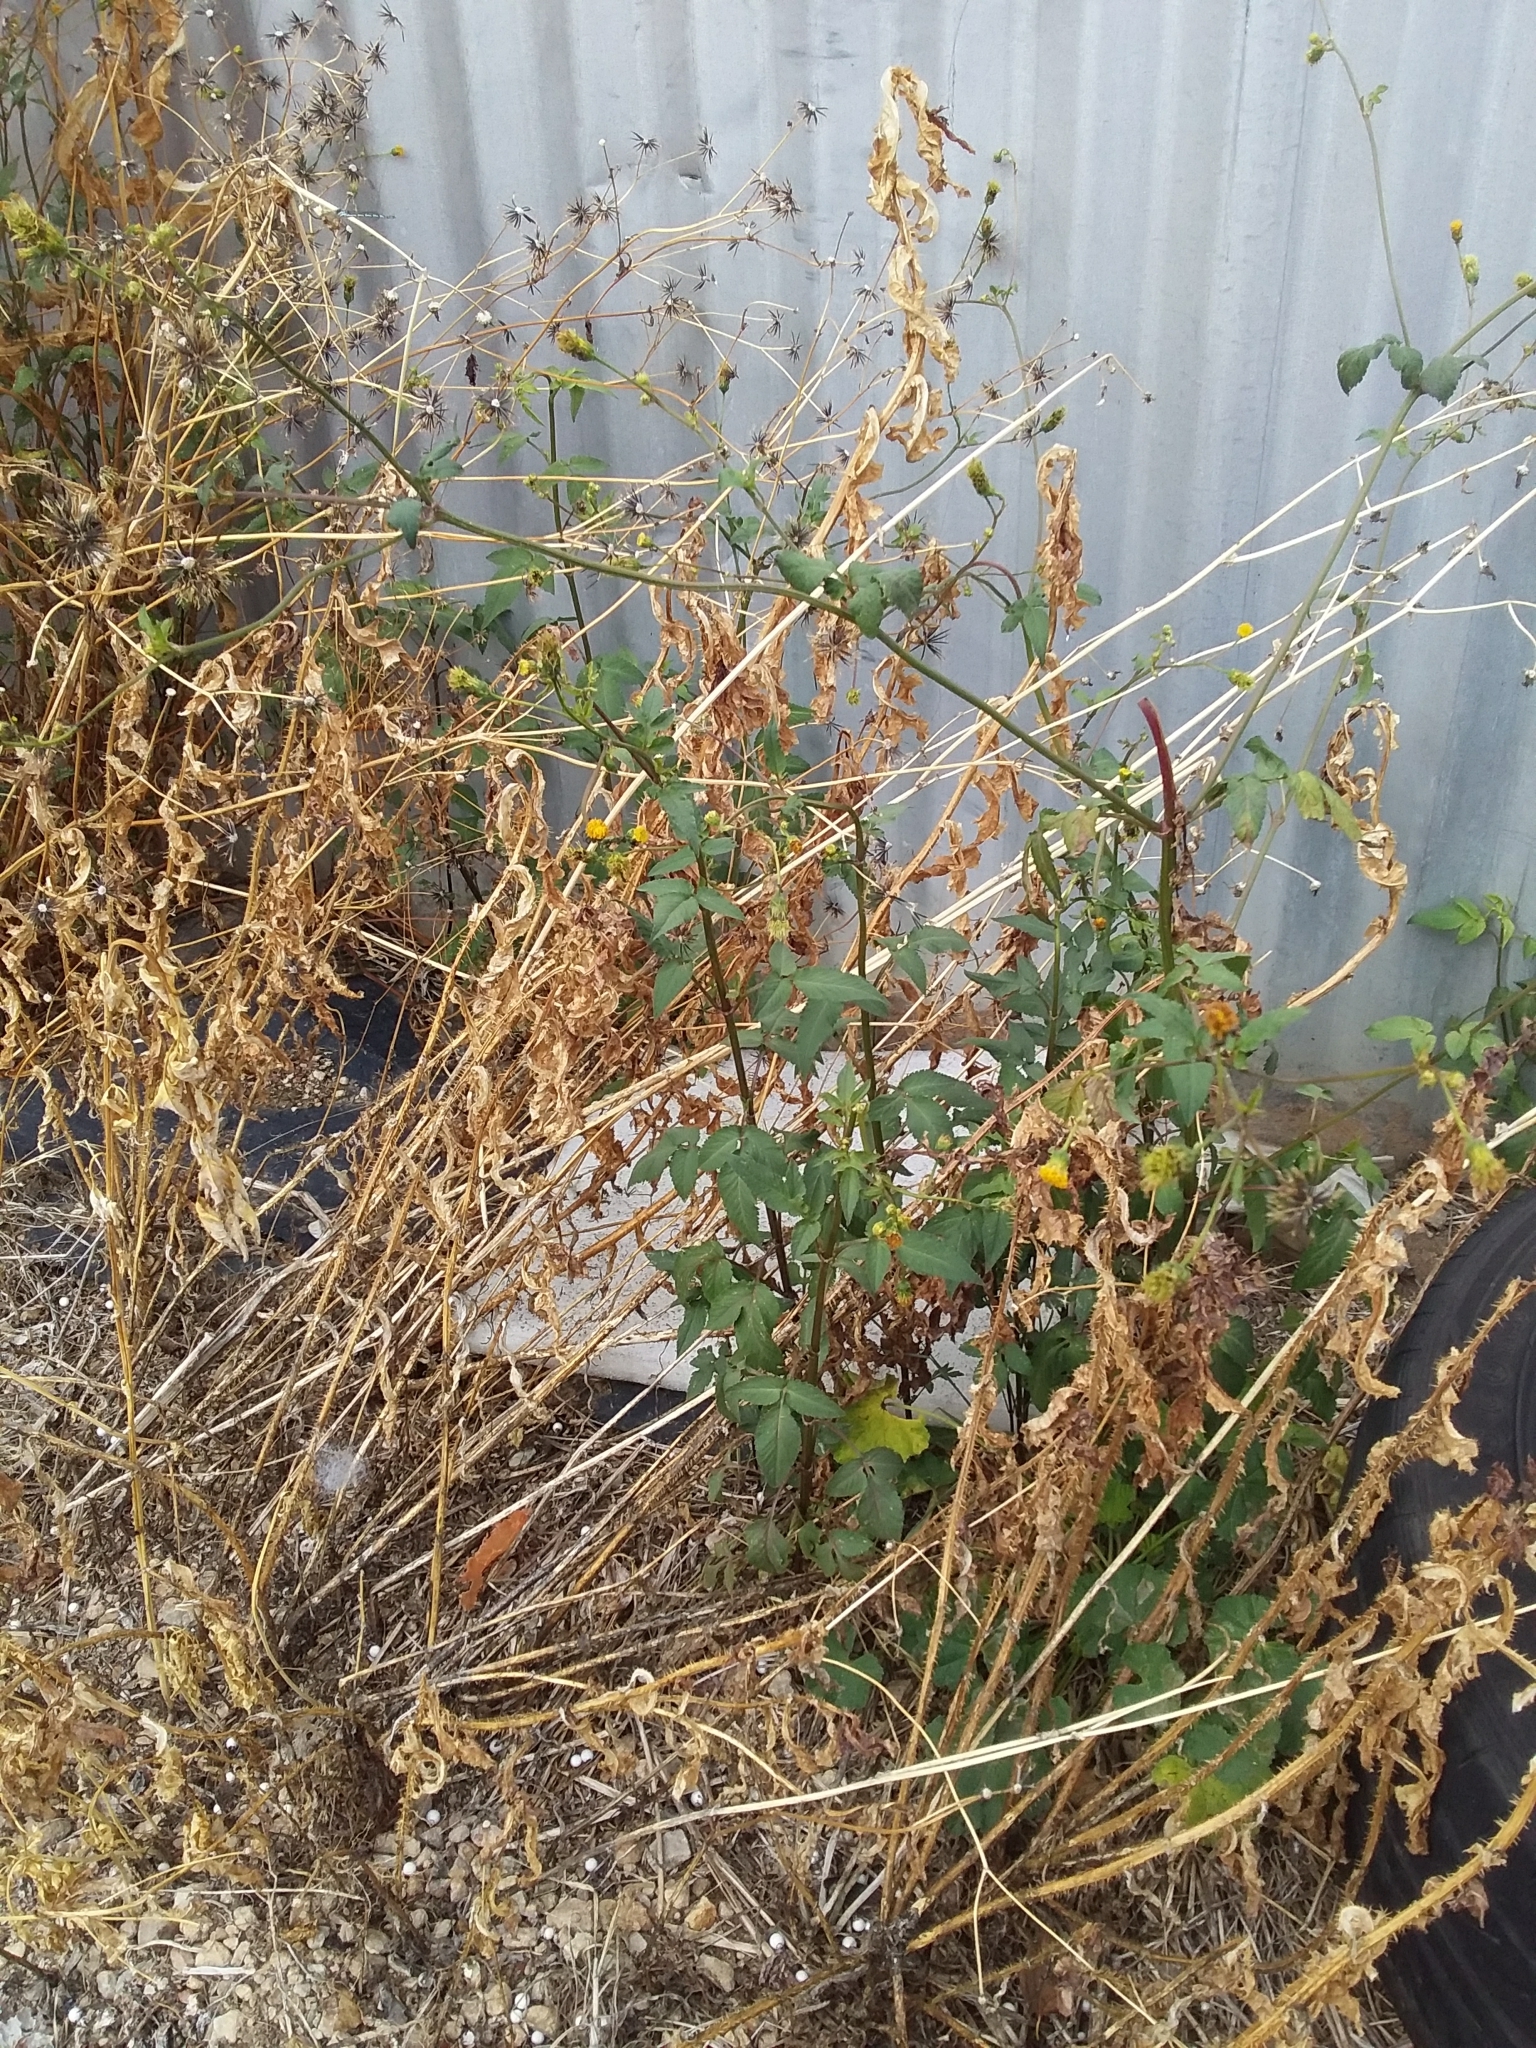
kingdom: Plantae
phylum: Tracheophyta
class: Magnoliopsida
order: Asterales
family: Asteraceae
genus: Bidens
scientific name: Bidens pilosa
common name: Black-jack
